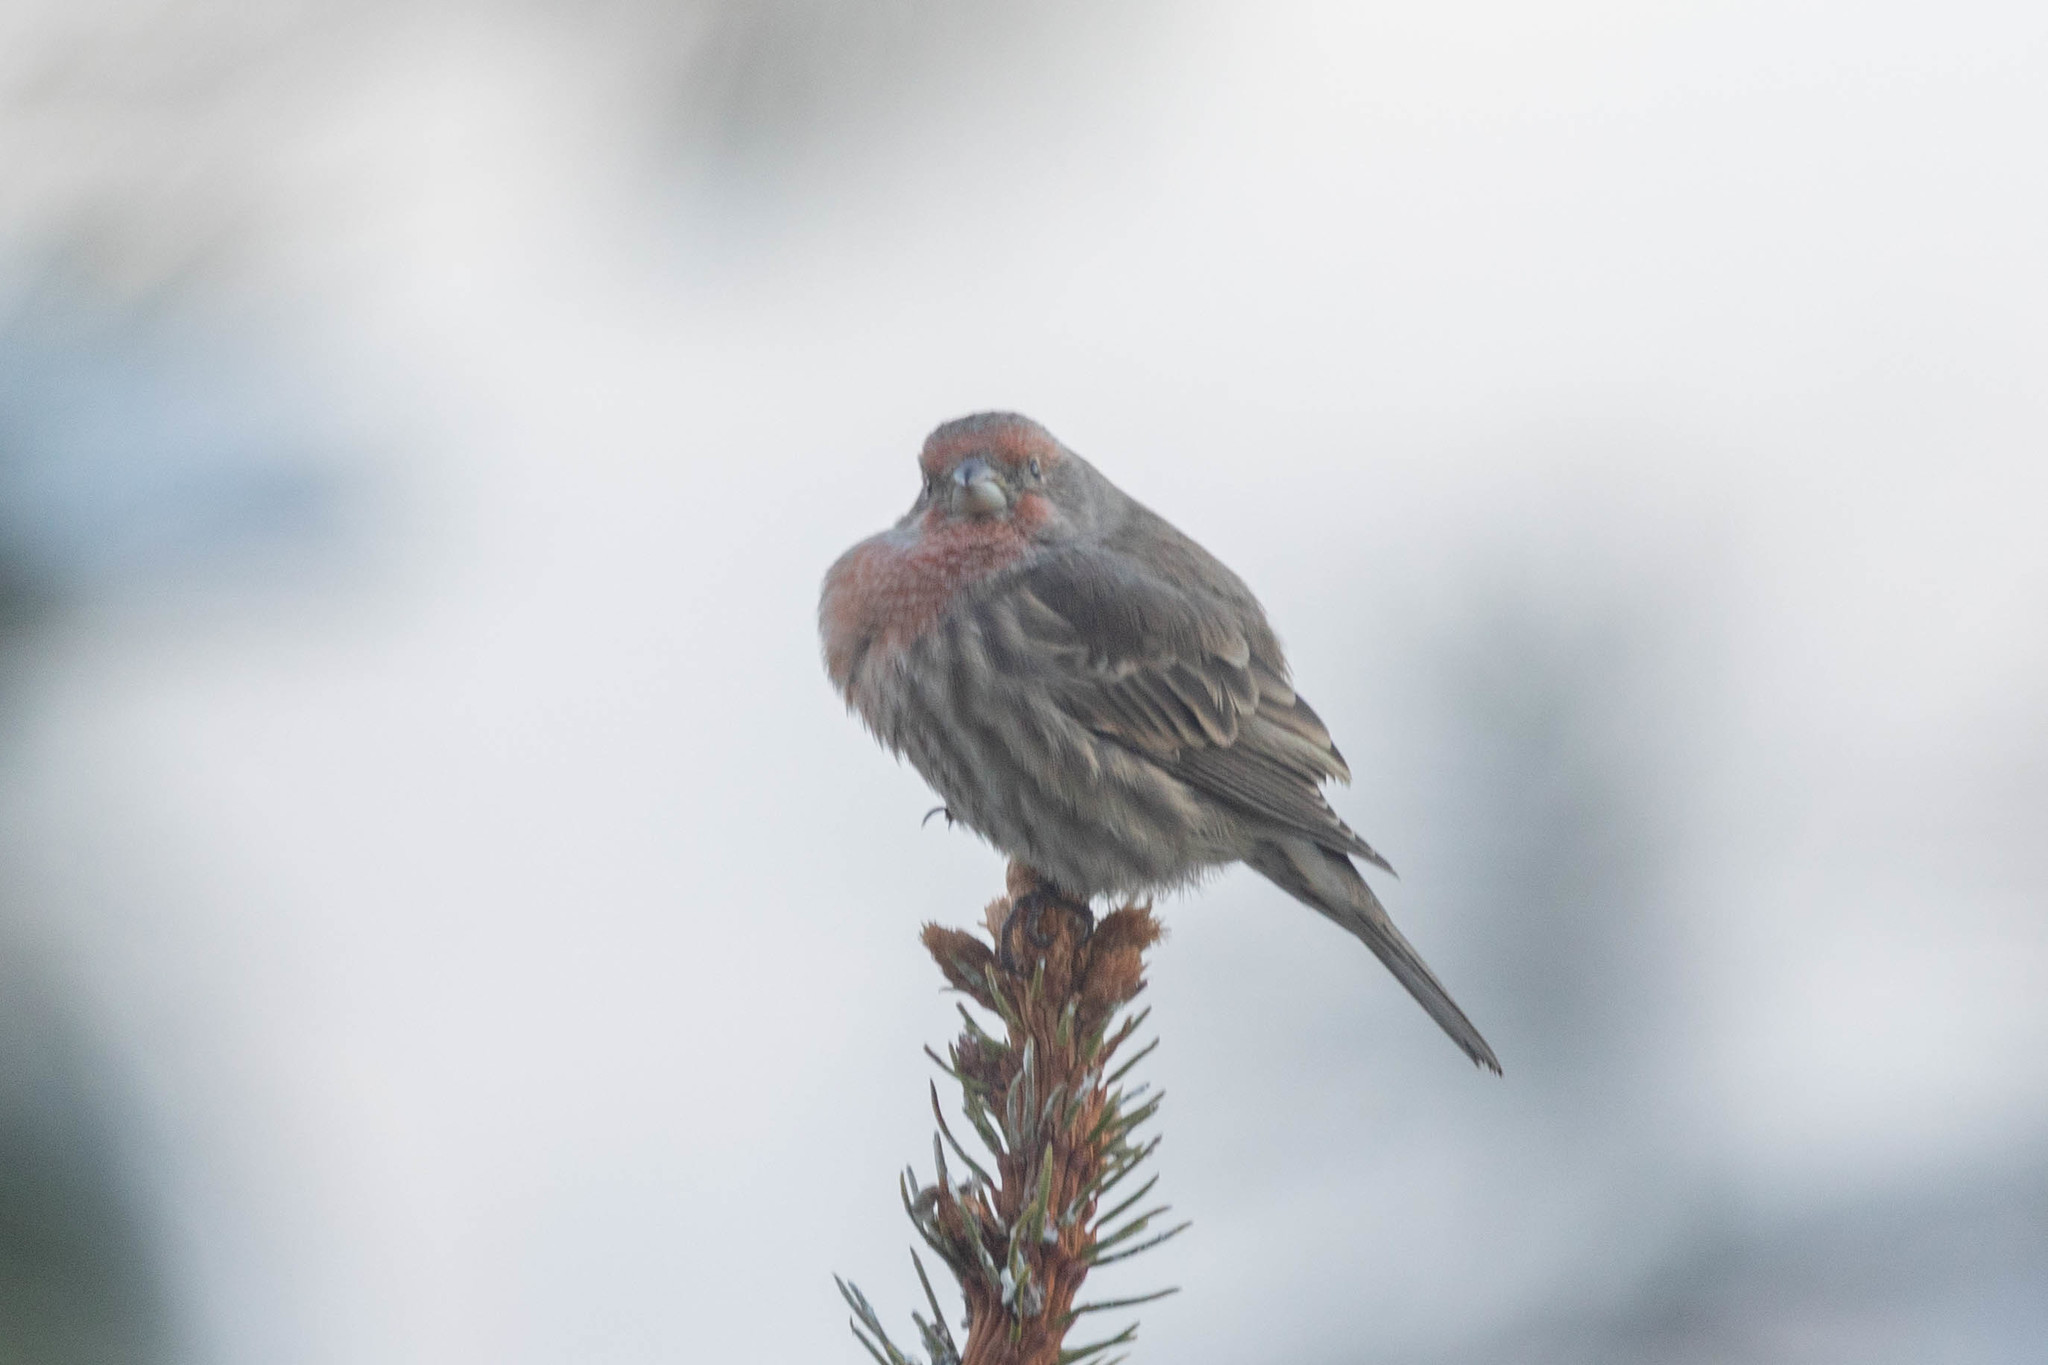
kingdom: Animalia
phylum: Chordata
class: Aves
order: Passeriformes
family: Fringillidae
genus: Haemorhous
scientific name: Haemorhous mexicanus
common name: House finch
